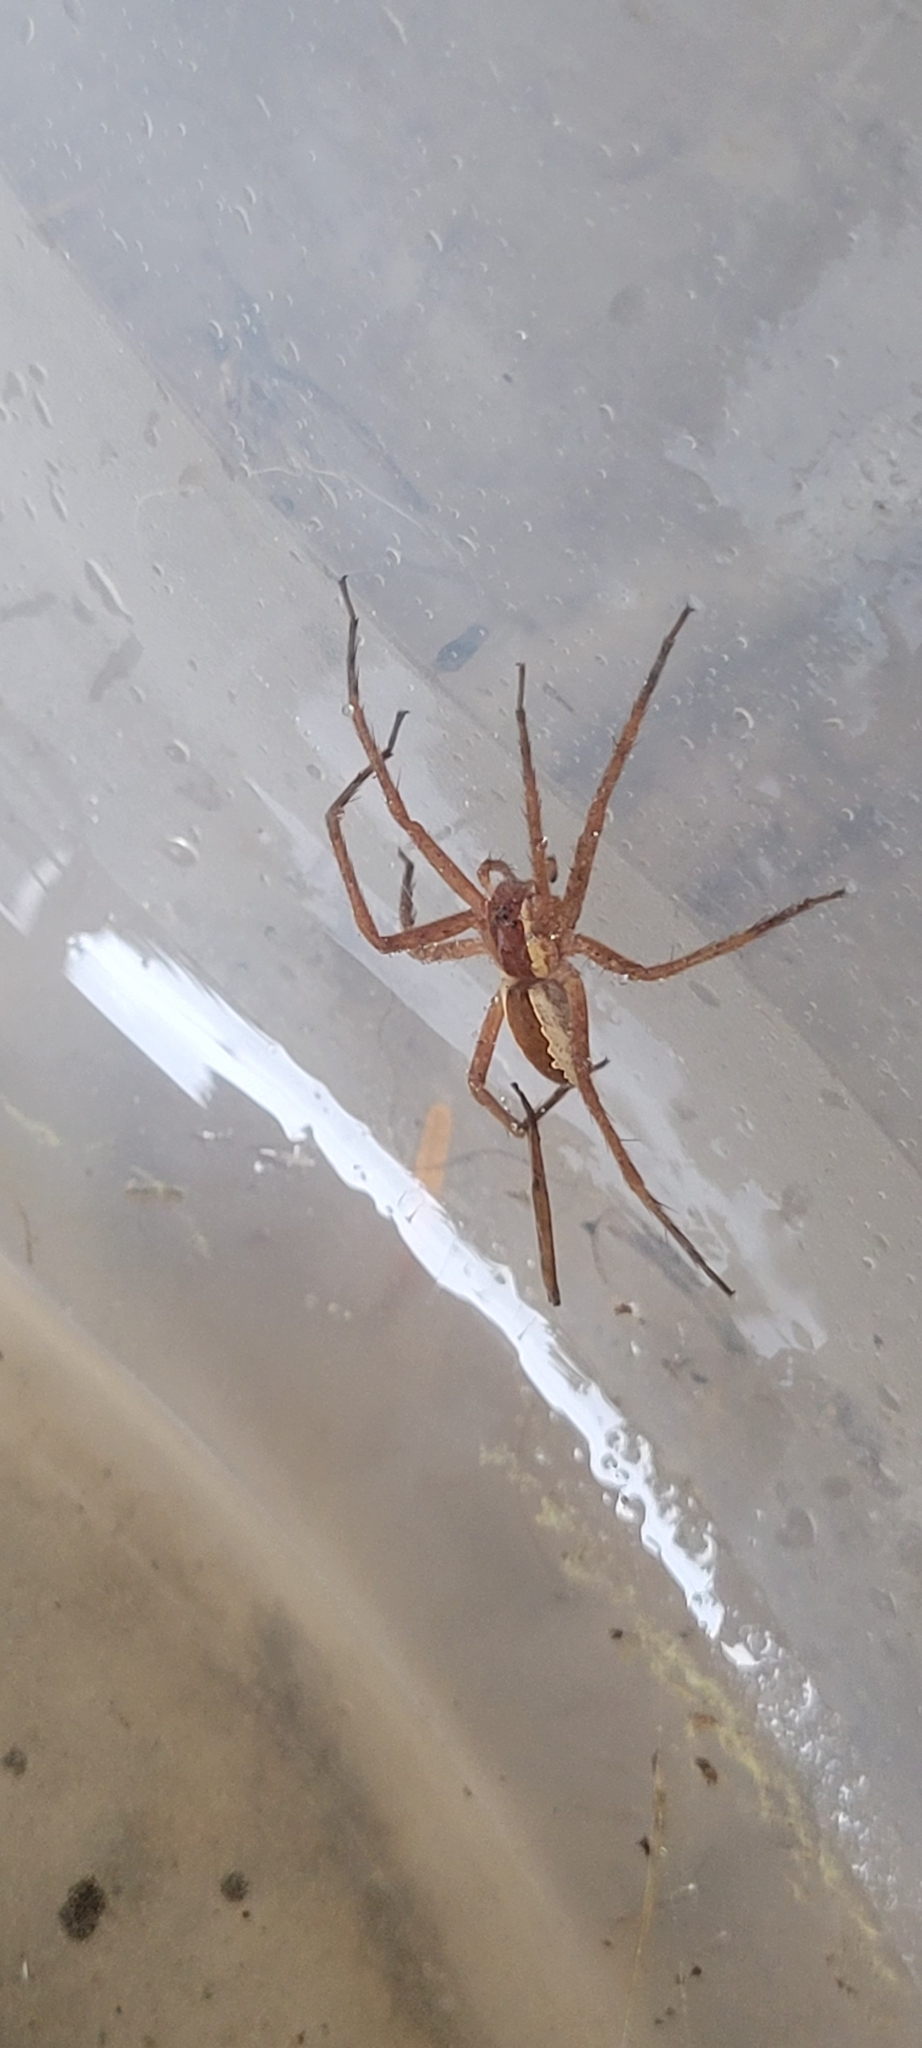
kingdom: Animalia
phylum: Arthropoda
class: Arachnida
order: Araneae
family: Pisauridae
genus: Pisaurina
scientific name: Pisaurina mira
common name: American nursery web spider
